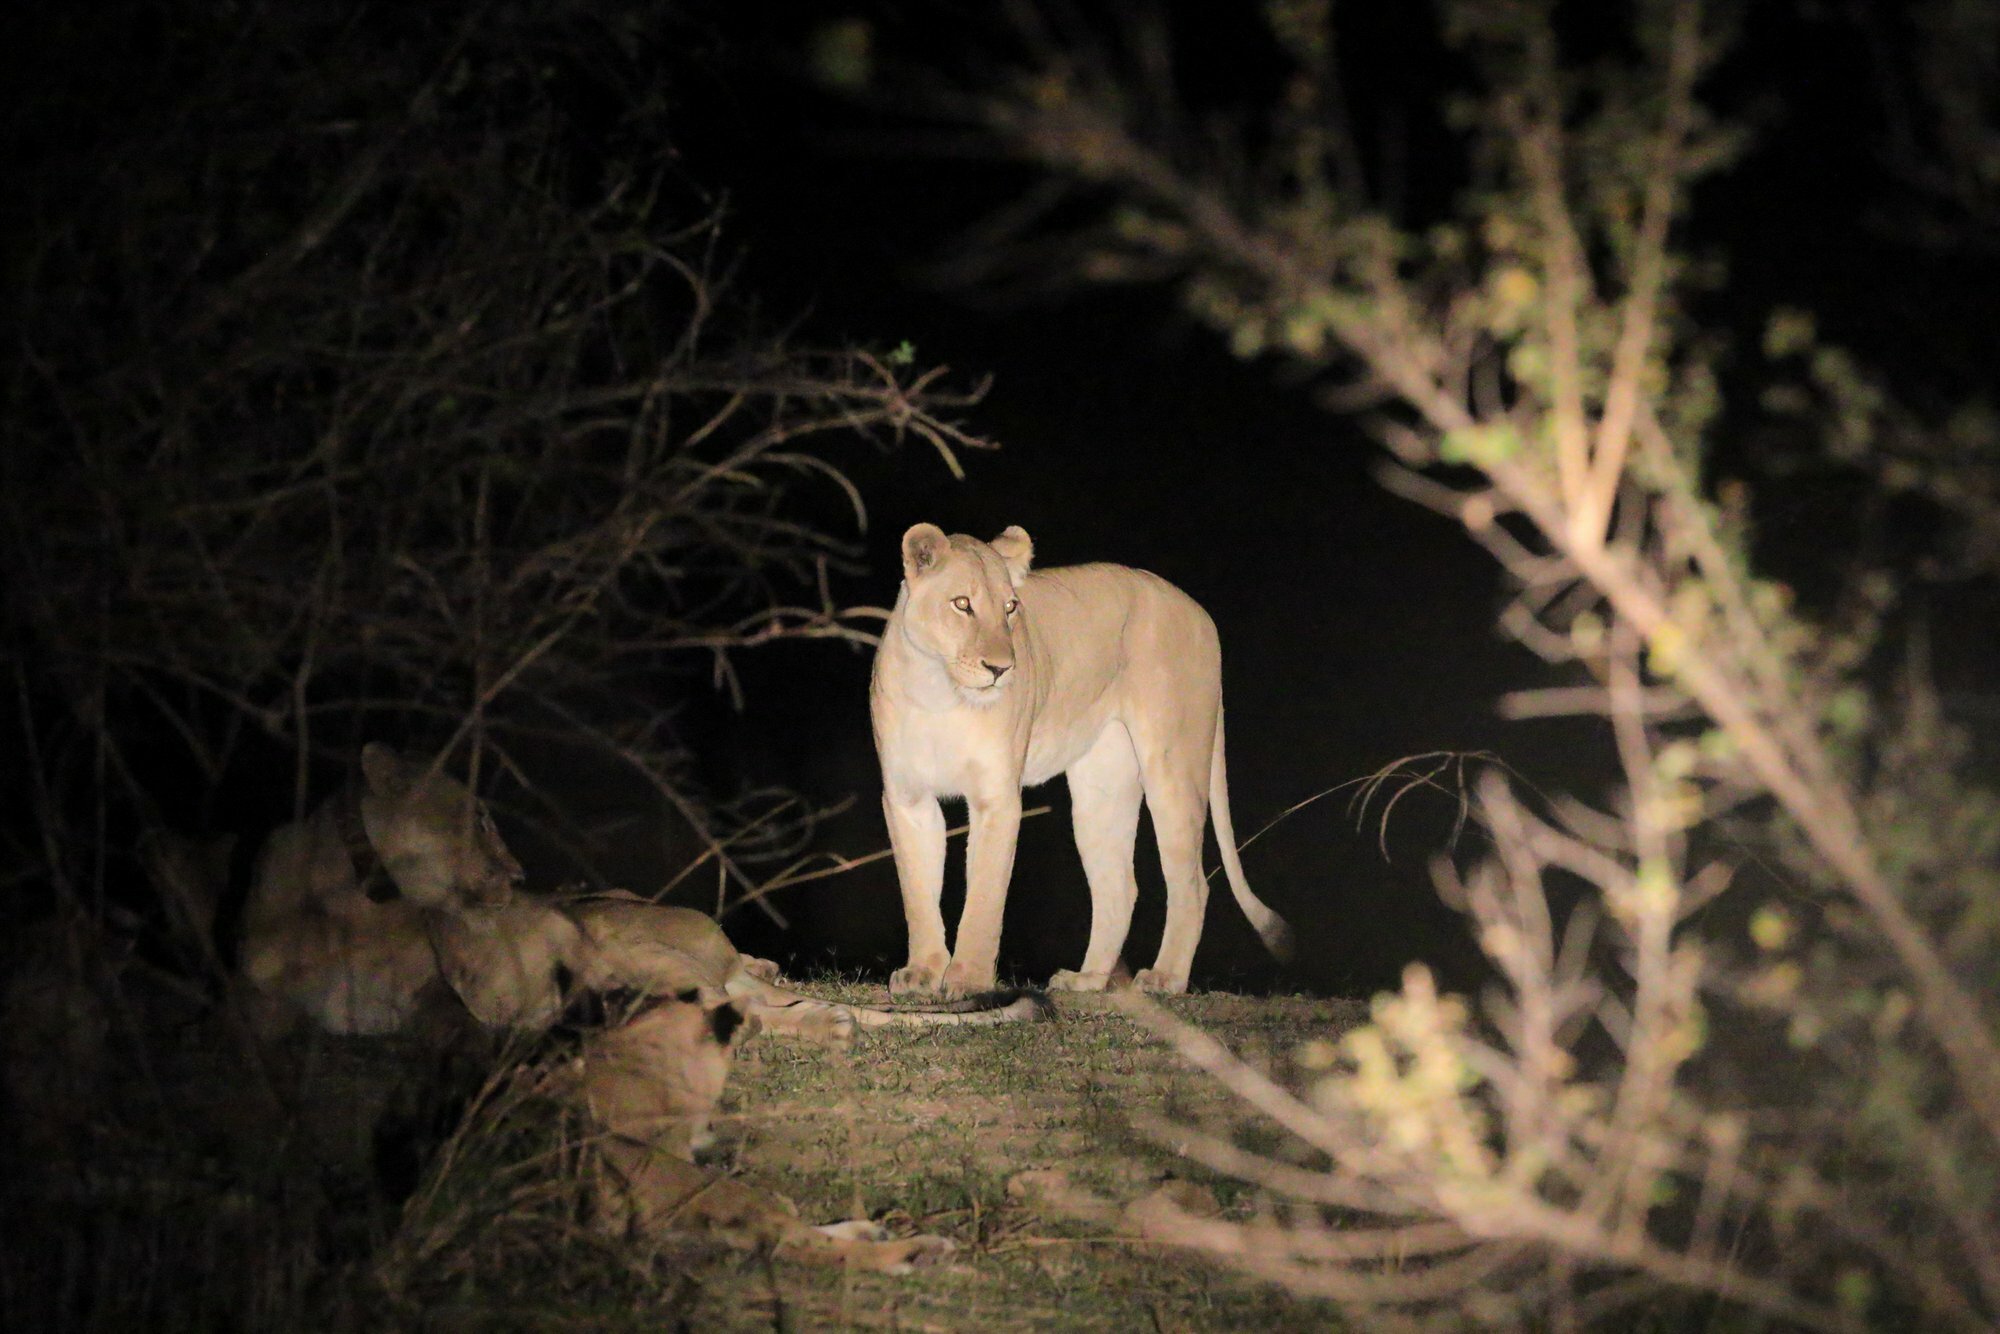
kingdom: Animalia
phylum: Chordata
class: Mammalia
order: Carnivora
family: Felidae
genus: Panthera
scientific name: Panthera leo
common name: Lion
